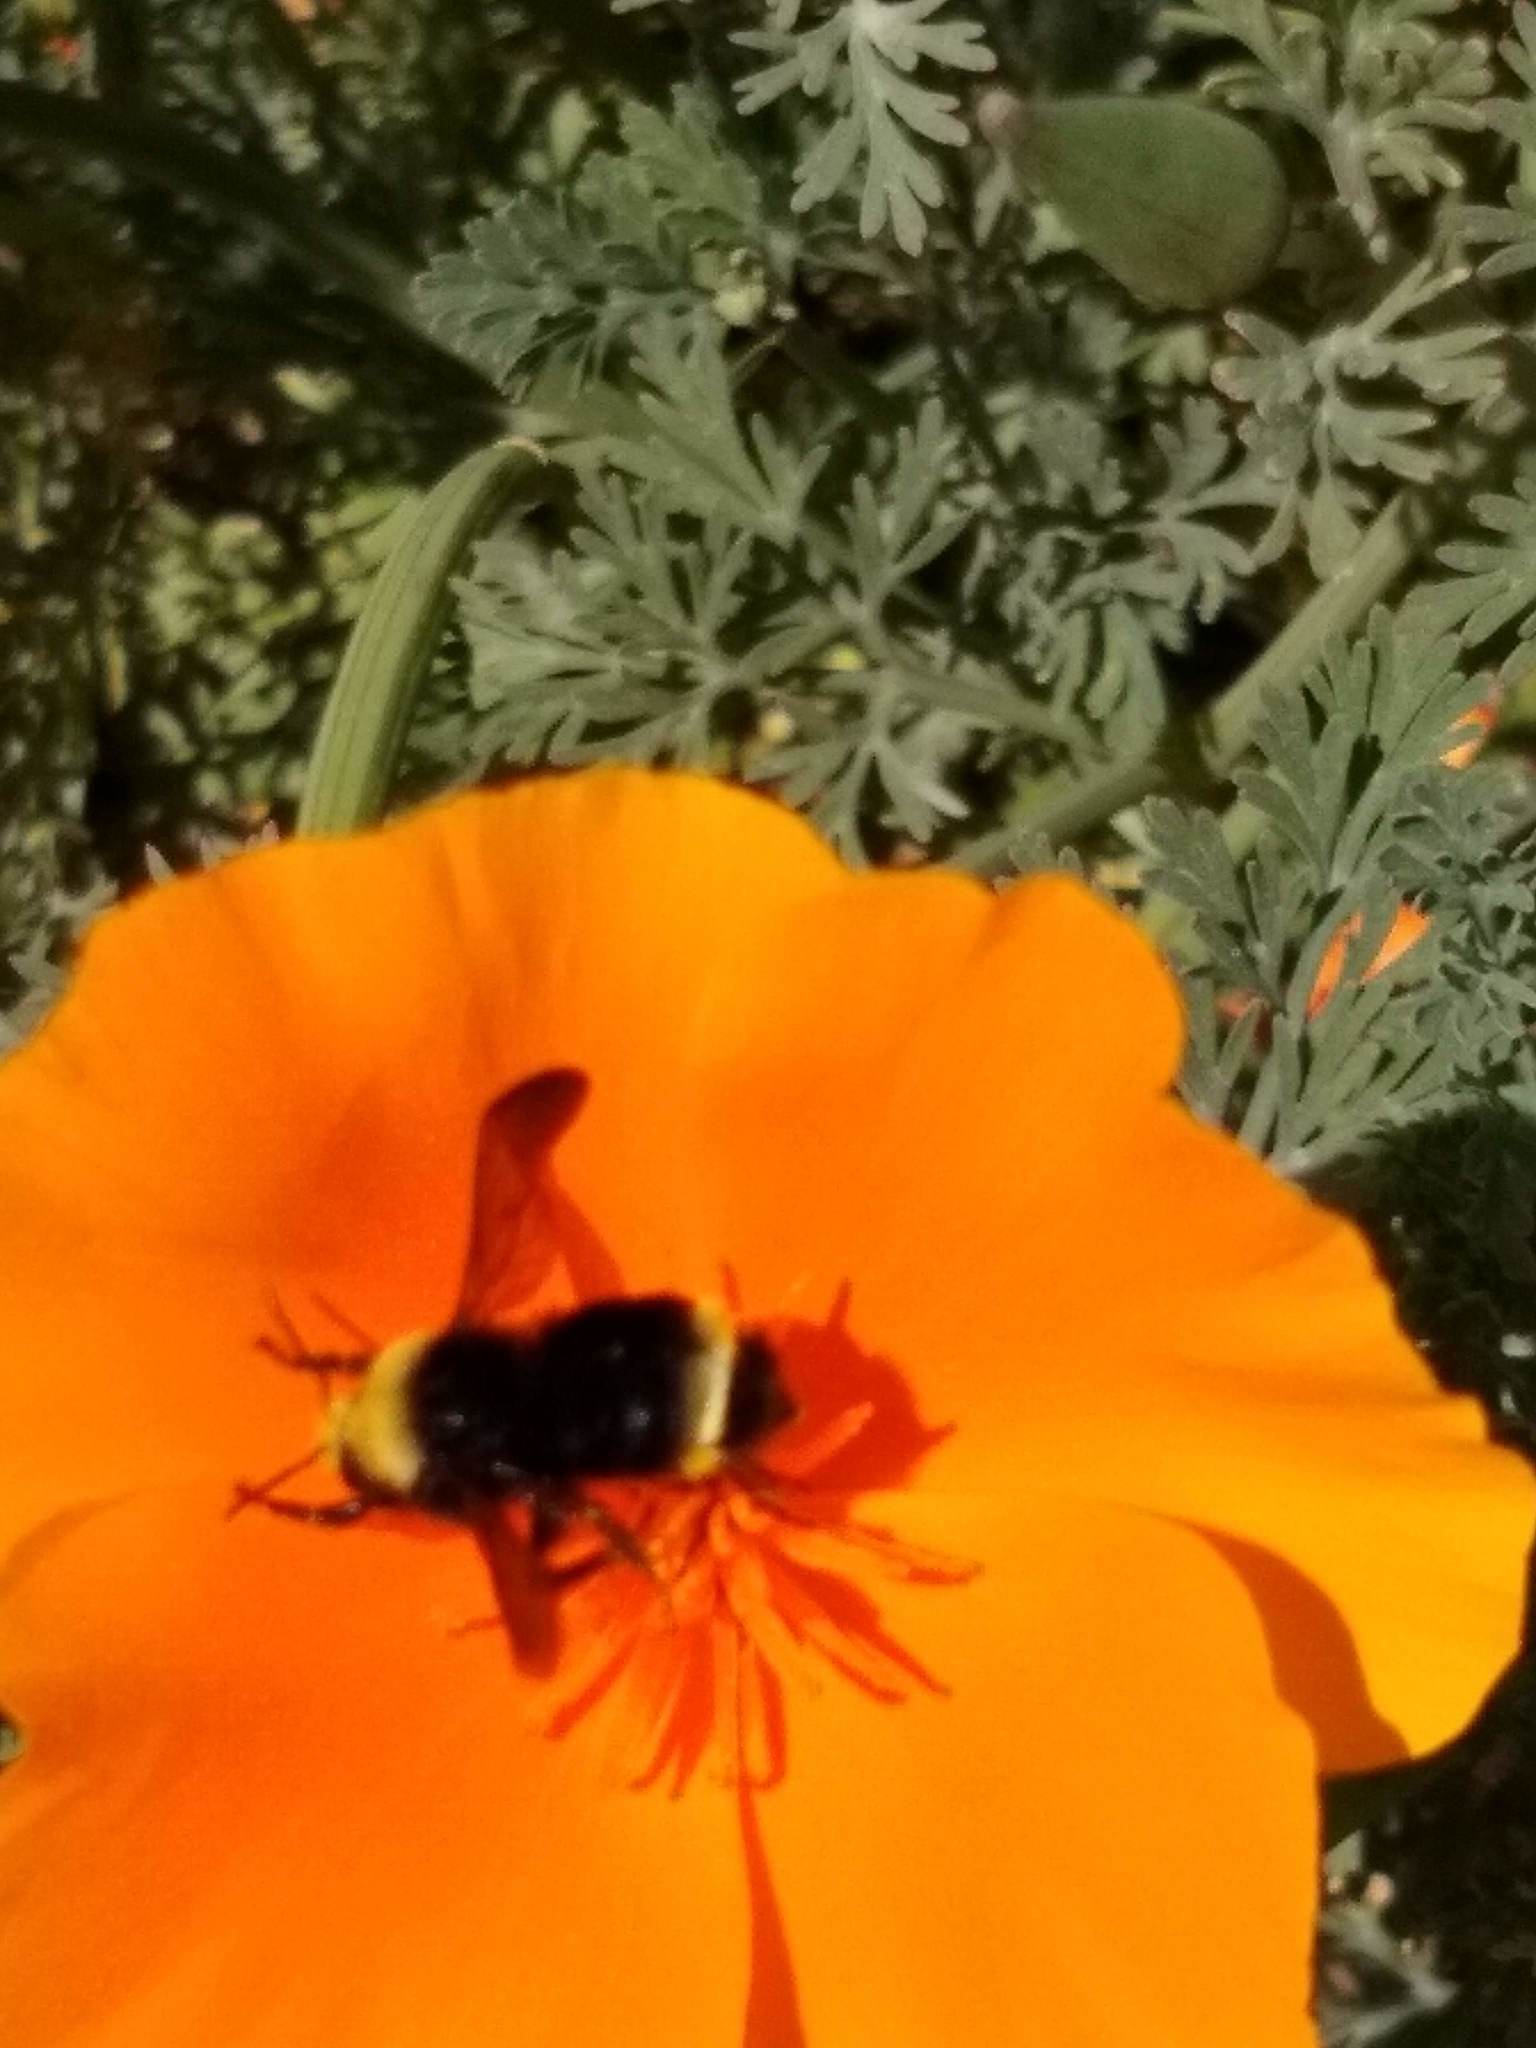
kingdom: Animalia
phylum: Arthropoda
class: Insecta
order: Hymenoptera
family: Apidae
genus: Bombus
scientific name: Bombus vosnesenskii
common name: Vosnesensky bumble bee
